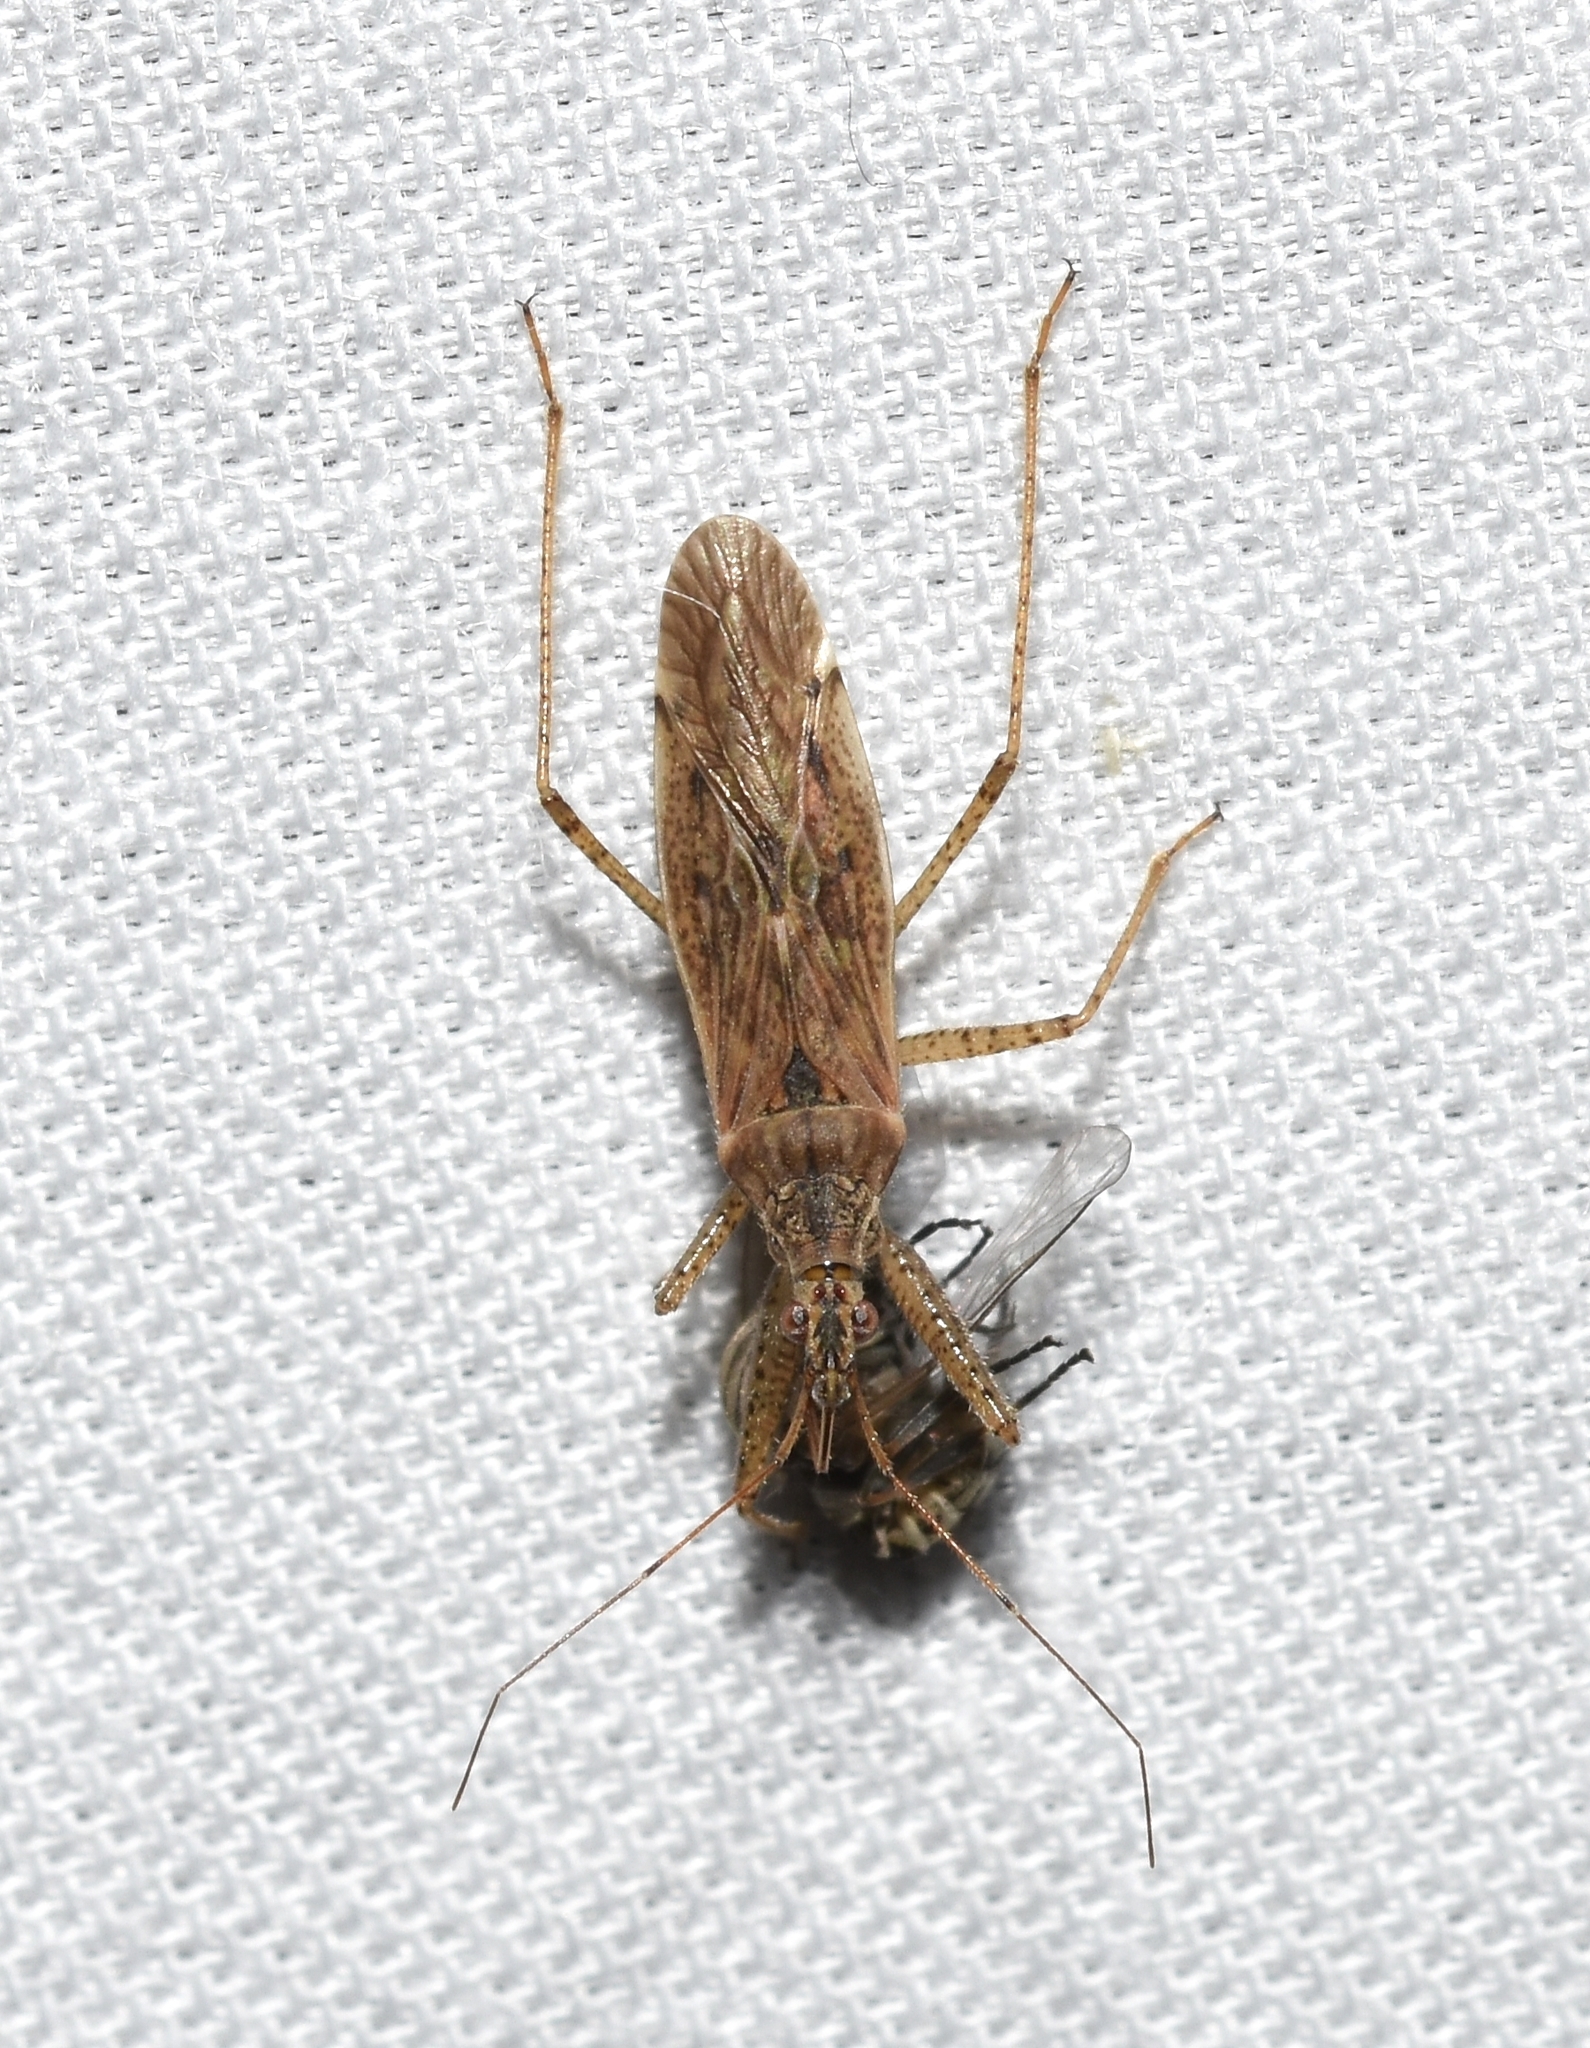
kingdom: Animalia
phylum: Arthropoda
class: Insecta
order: Hemiptera
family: Nabidae
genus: Nabis
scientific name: Nabis roseipennis
